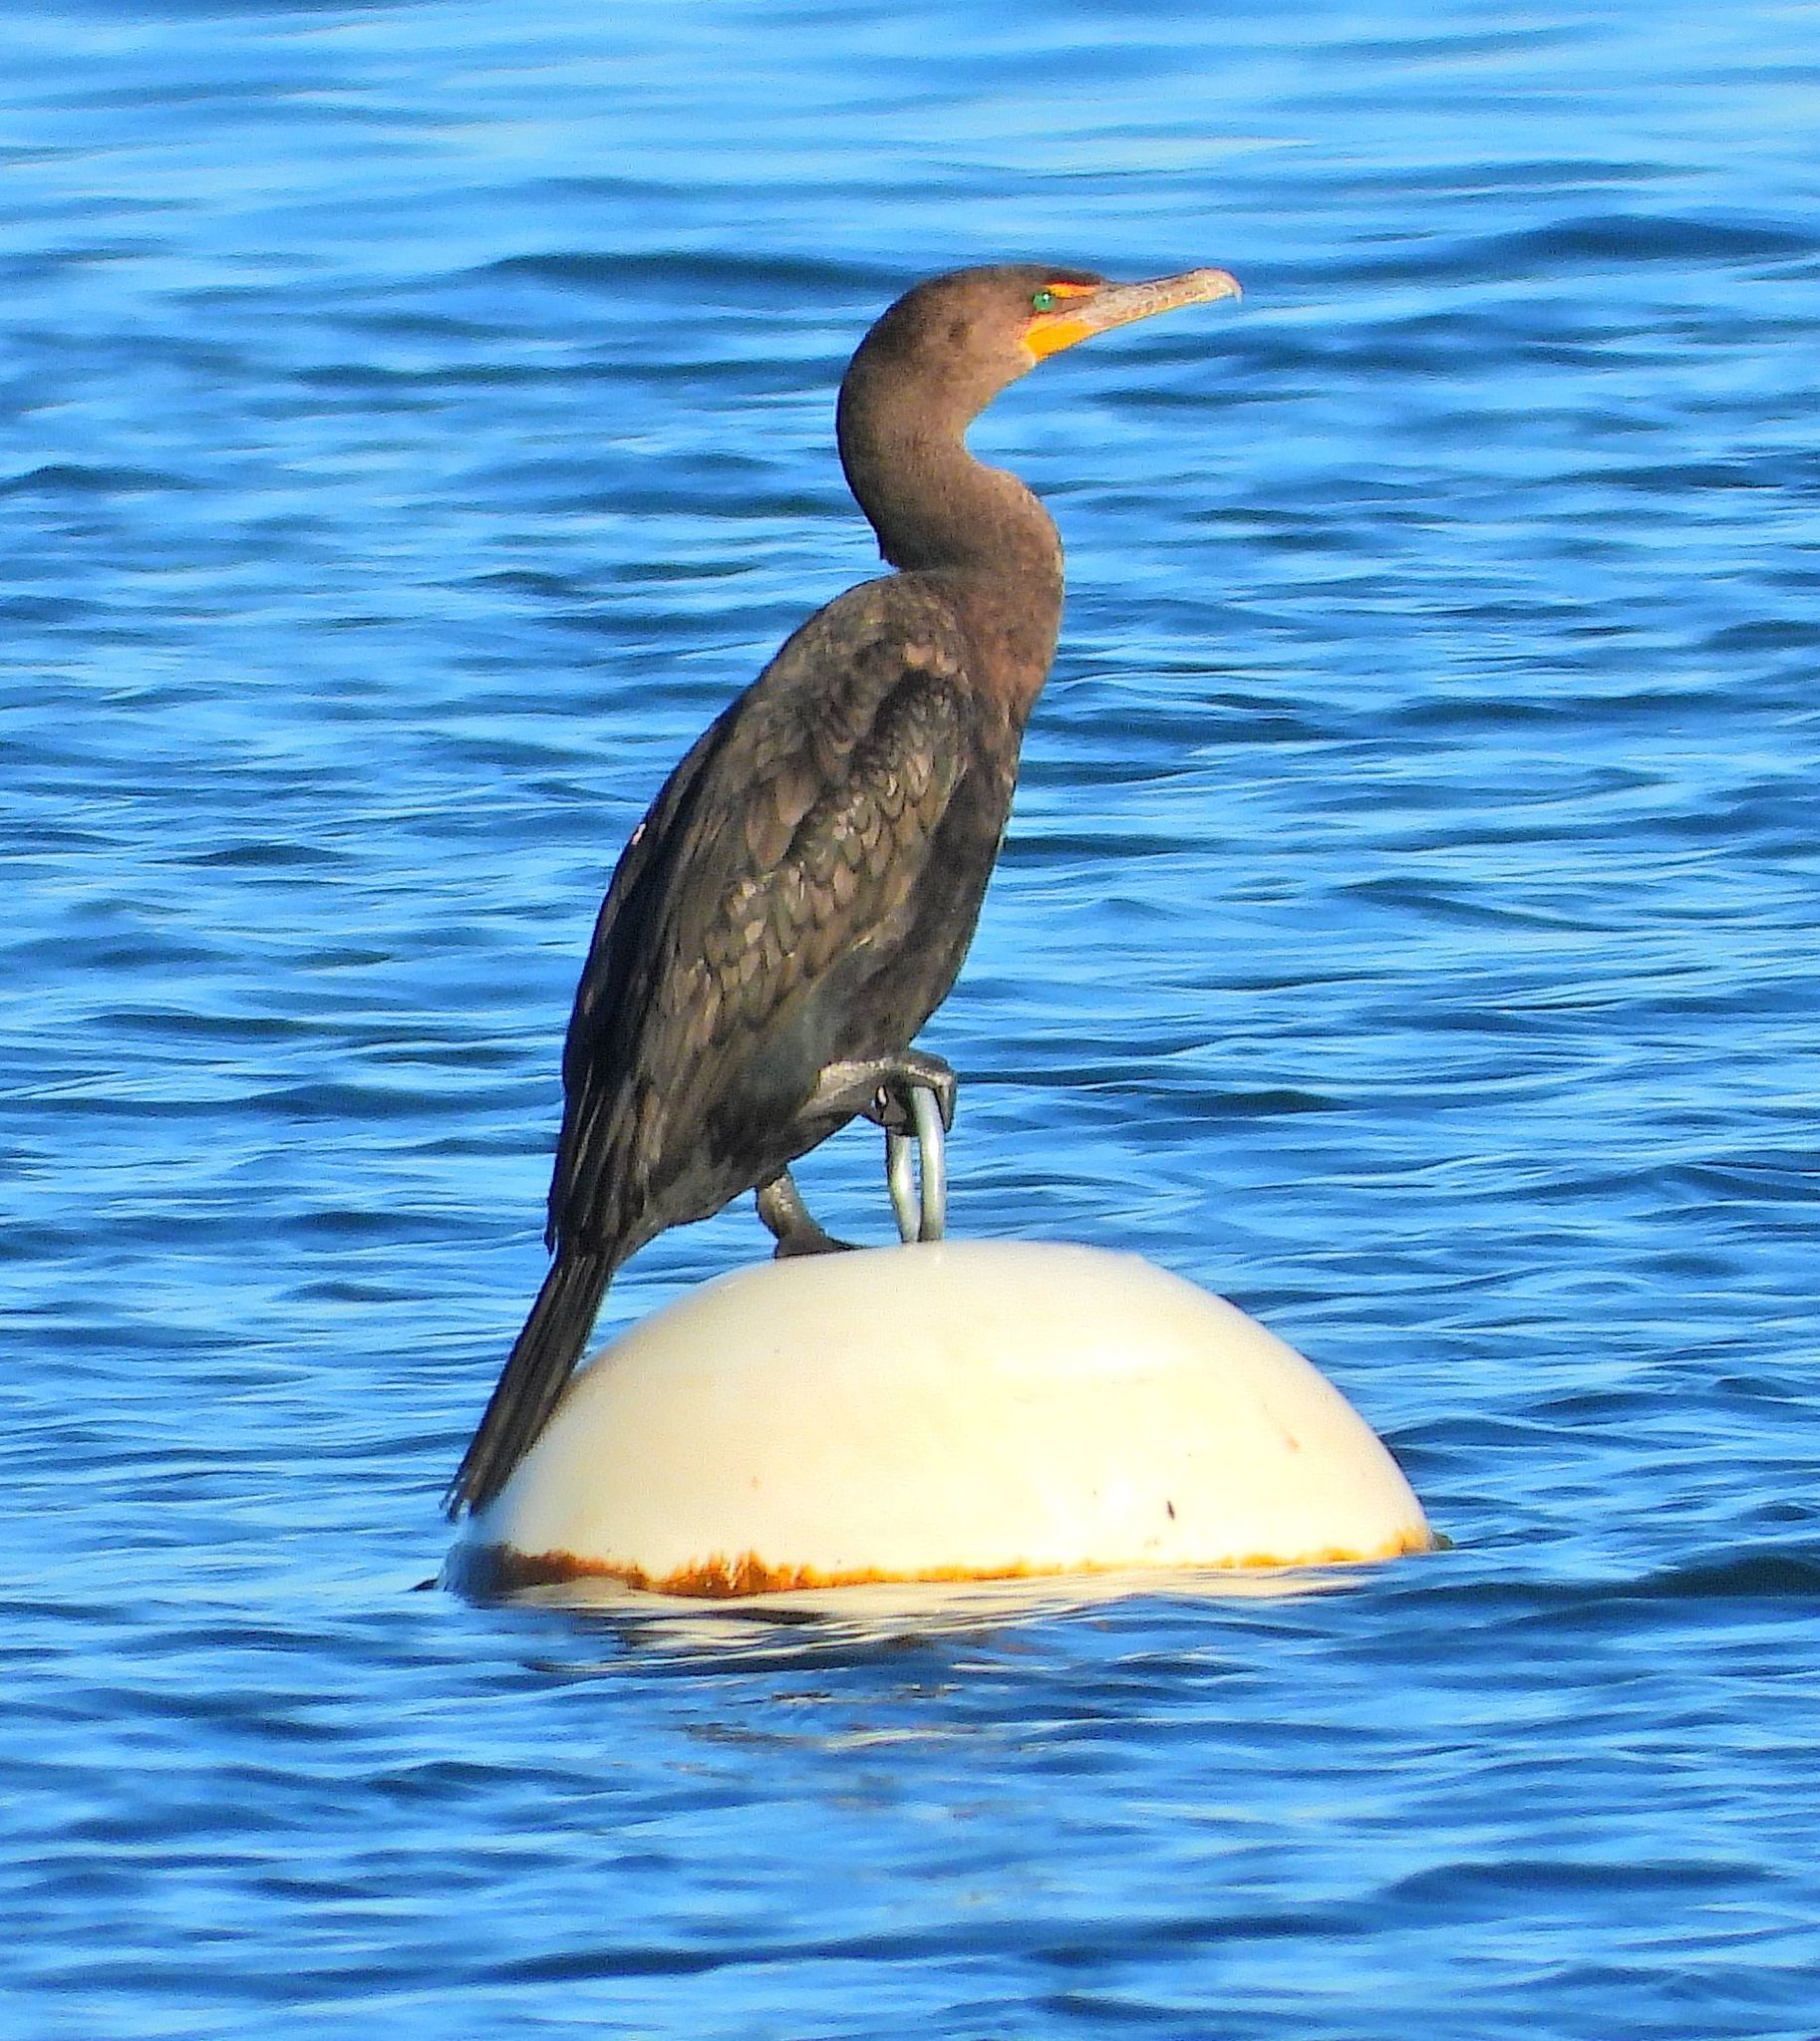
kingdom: Animalia
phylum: Chordata
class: Aves
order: Suliformes
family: Phalacrocoracidae
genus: Phalacrocorax
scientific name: Phalacrocorax auritus
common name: Double-crested cormorant
